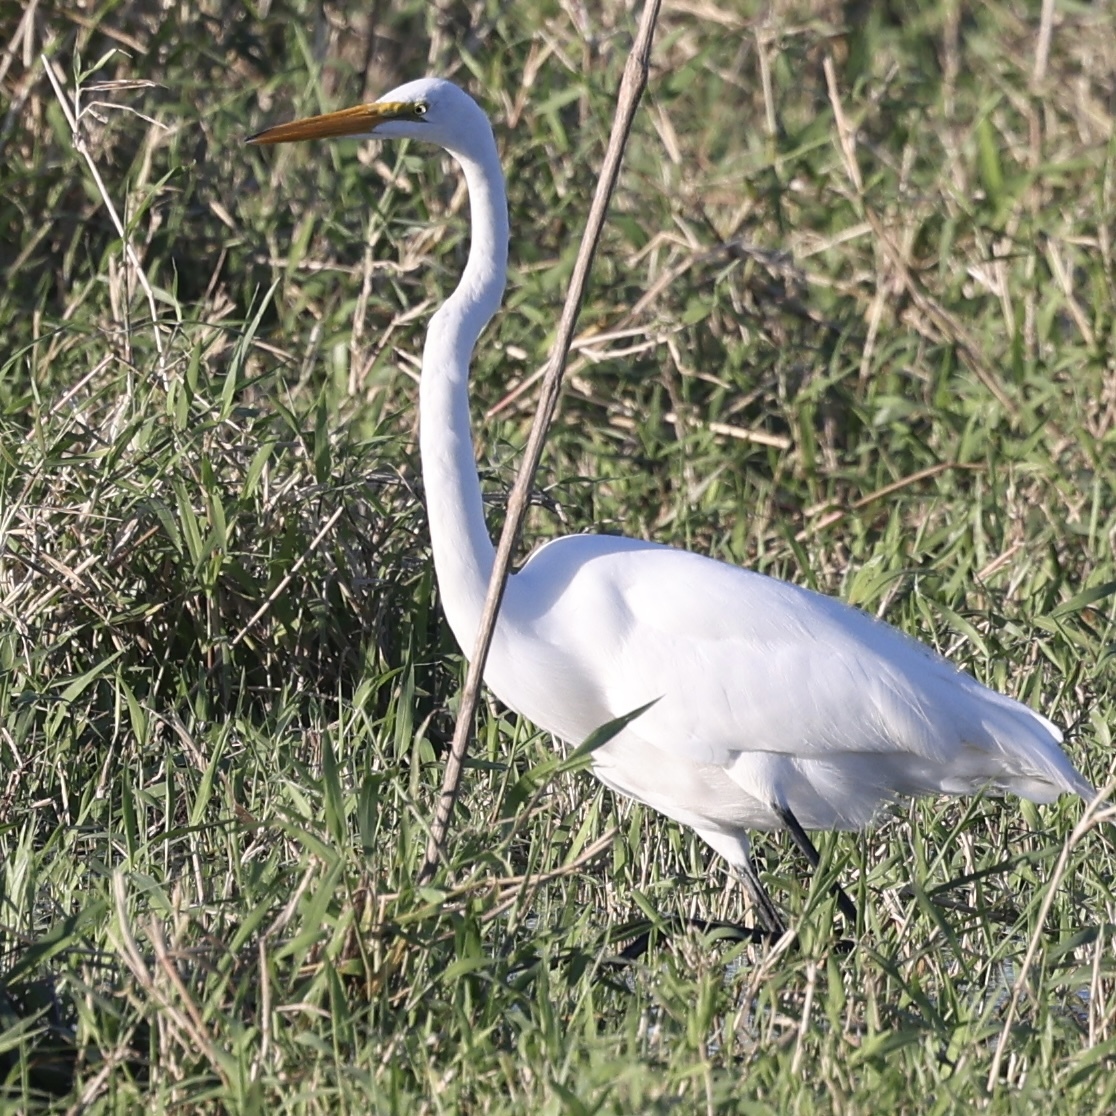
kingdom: Animalia
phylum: Chordata
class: Aves
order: Pelecaniformes
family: Ardeidae
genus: Ardea
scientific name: Ardea alba
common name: Great egret
